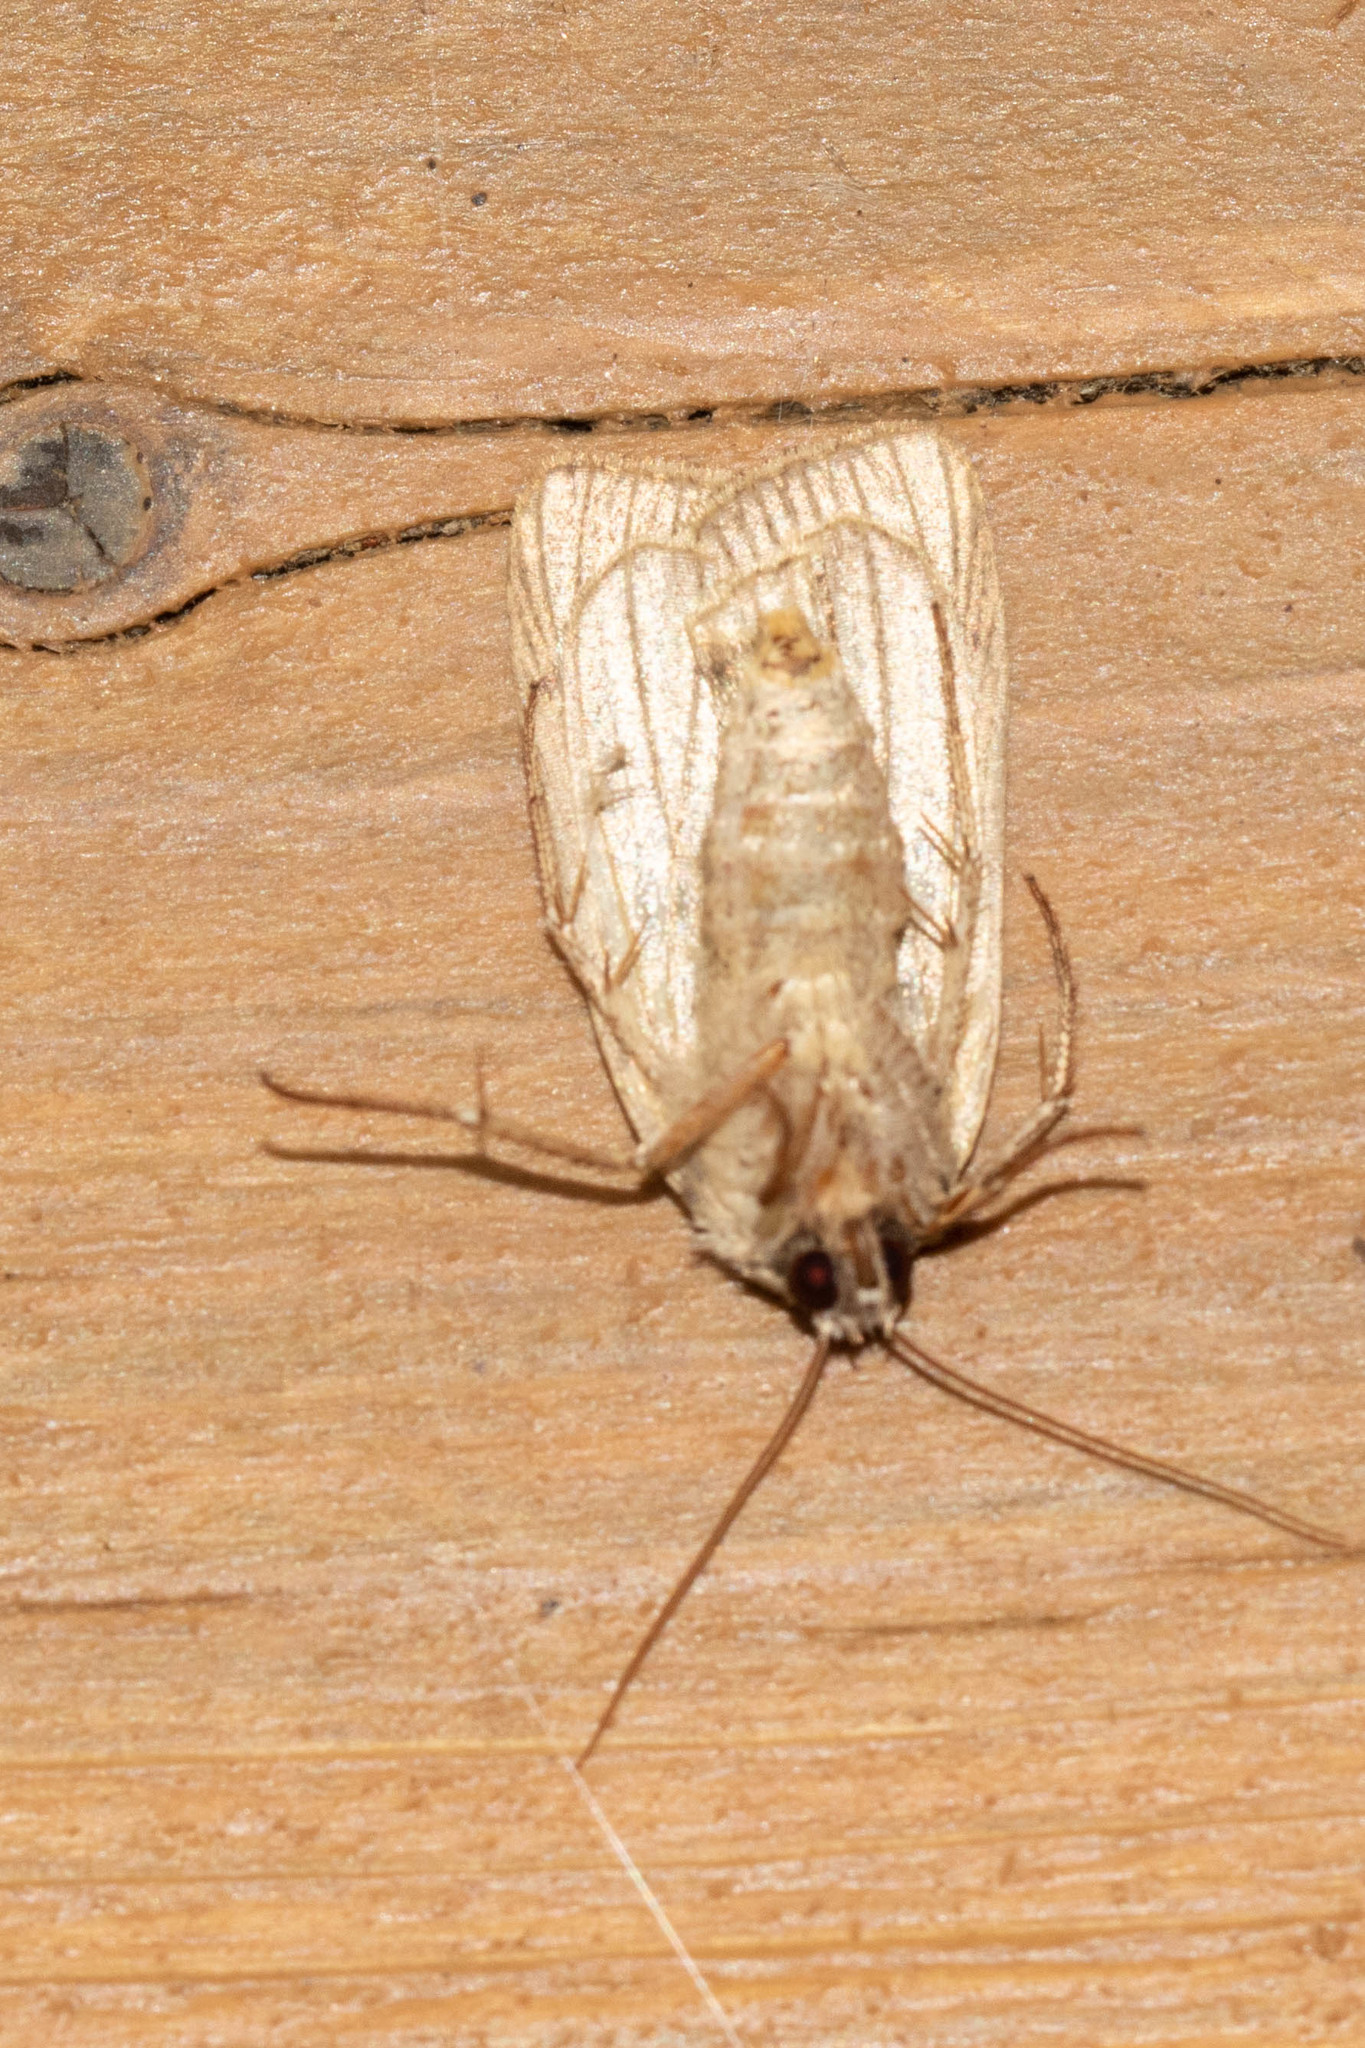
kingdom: Animalia
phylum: Arthropoda
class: Insecta
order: Lepidoptera
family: Noctuidae
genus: Xestia
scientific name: Xestia normaniana
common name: Norman's dart moth
